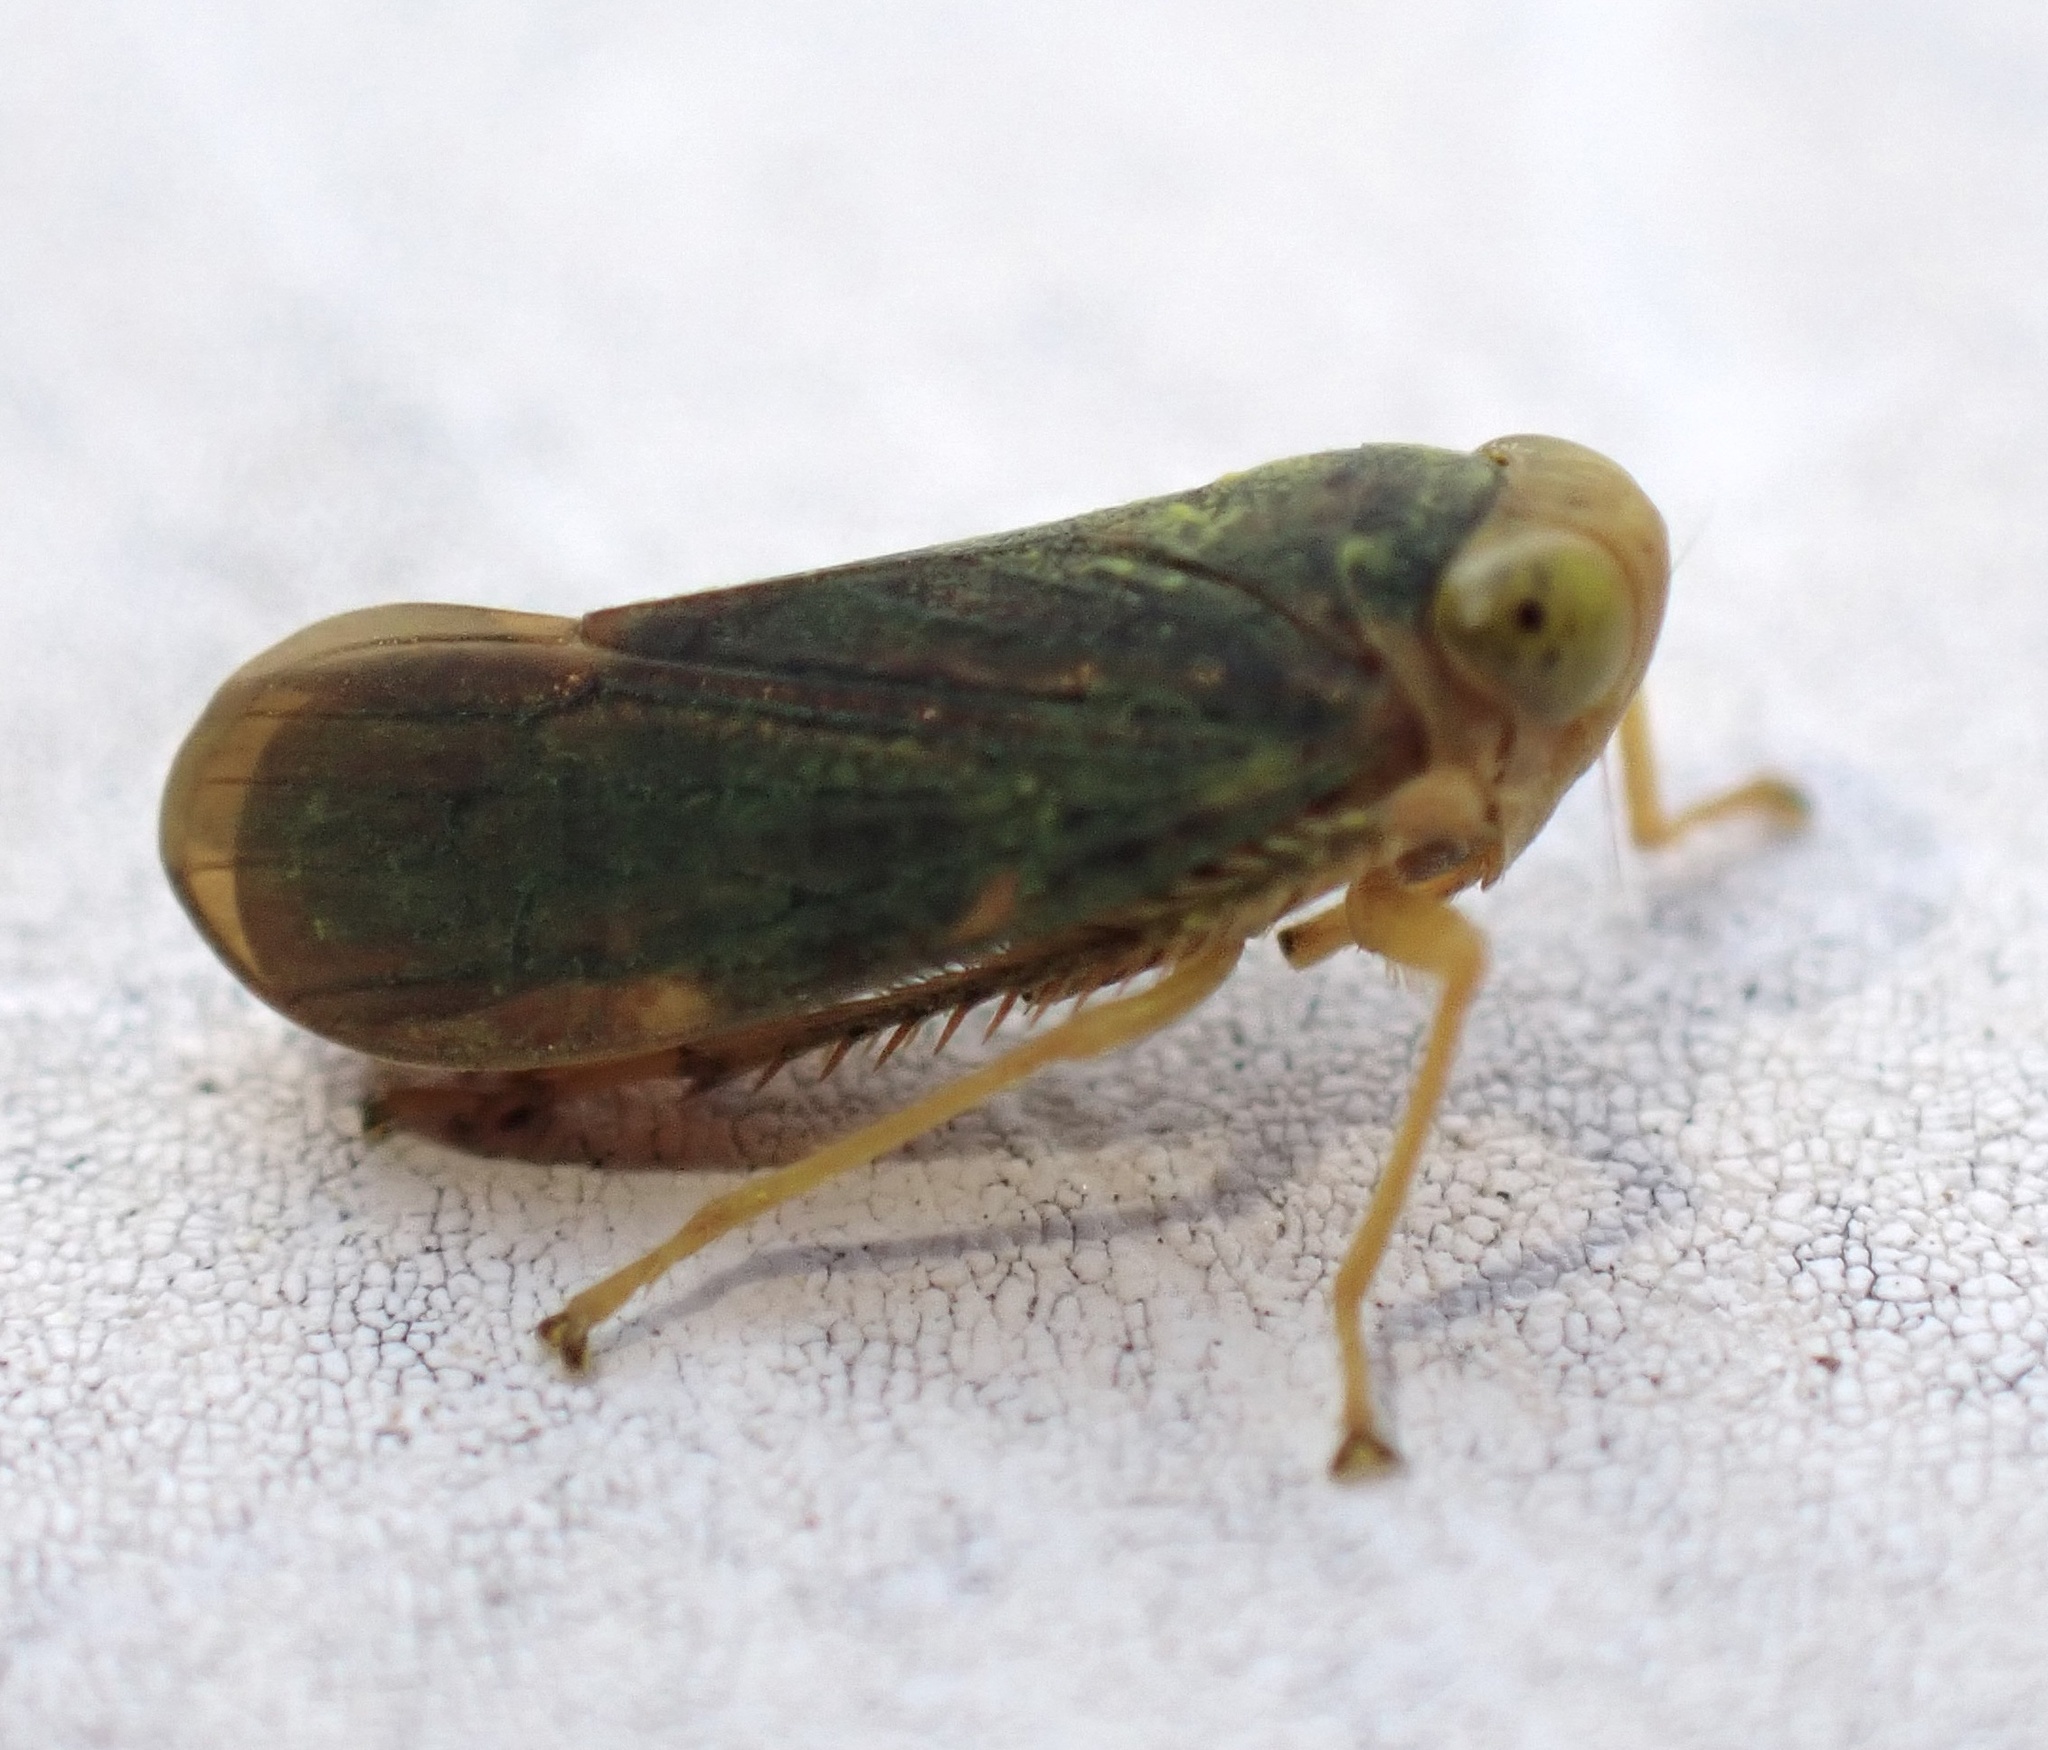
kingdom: Animalia
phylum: Arthropoda
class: Insecta
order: Hemiptera
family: Cicadellidae
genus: Jikradia
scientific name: Jikradia olitoria
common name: Coppery leafhopper
